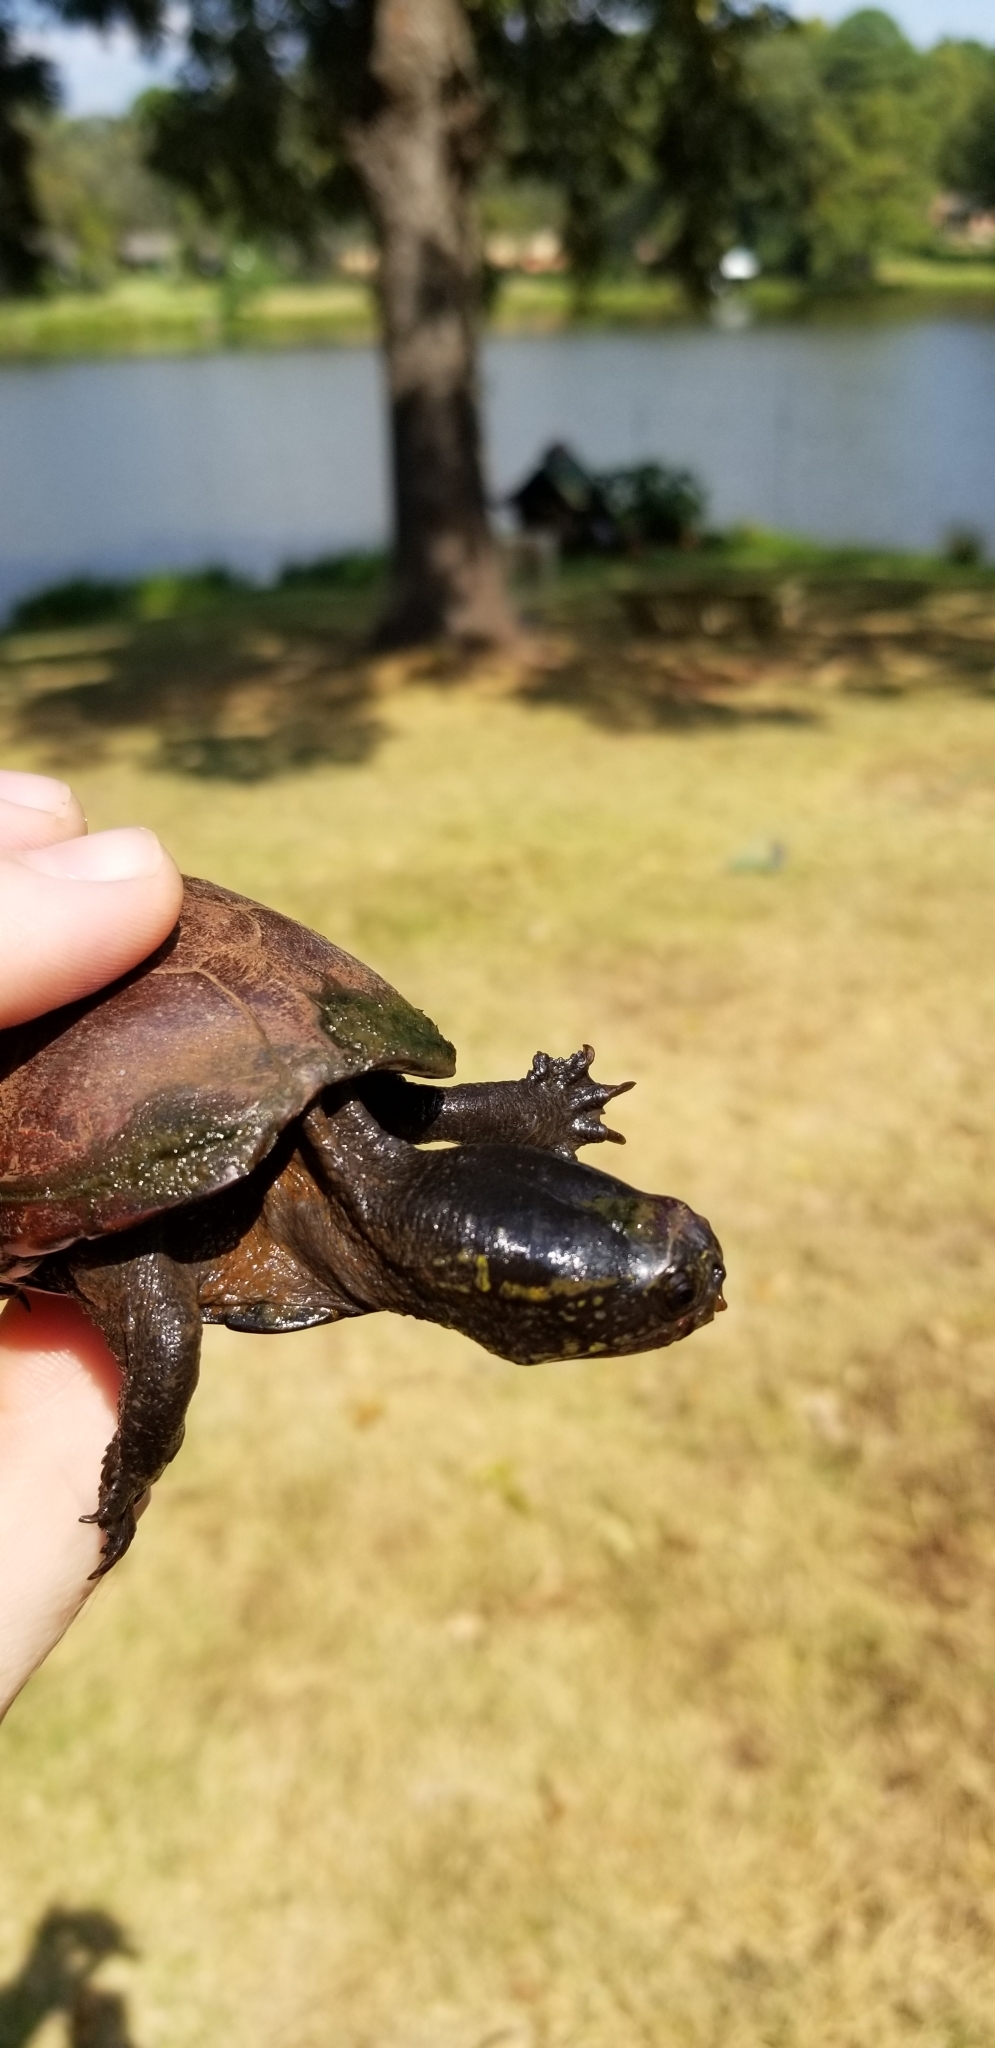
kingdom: Animalia
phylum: Chordata
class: Testudines
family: Kinosternidae
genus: Kinosternon
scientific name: Kinosternon subrubrum
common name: Eastern mud turtle
